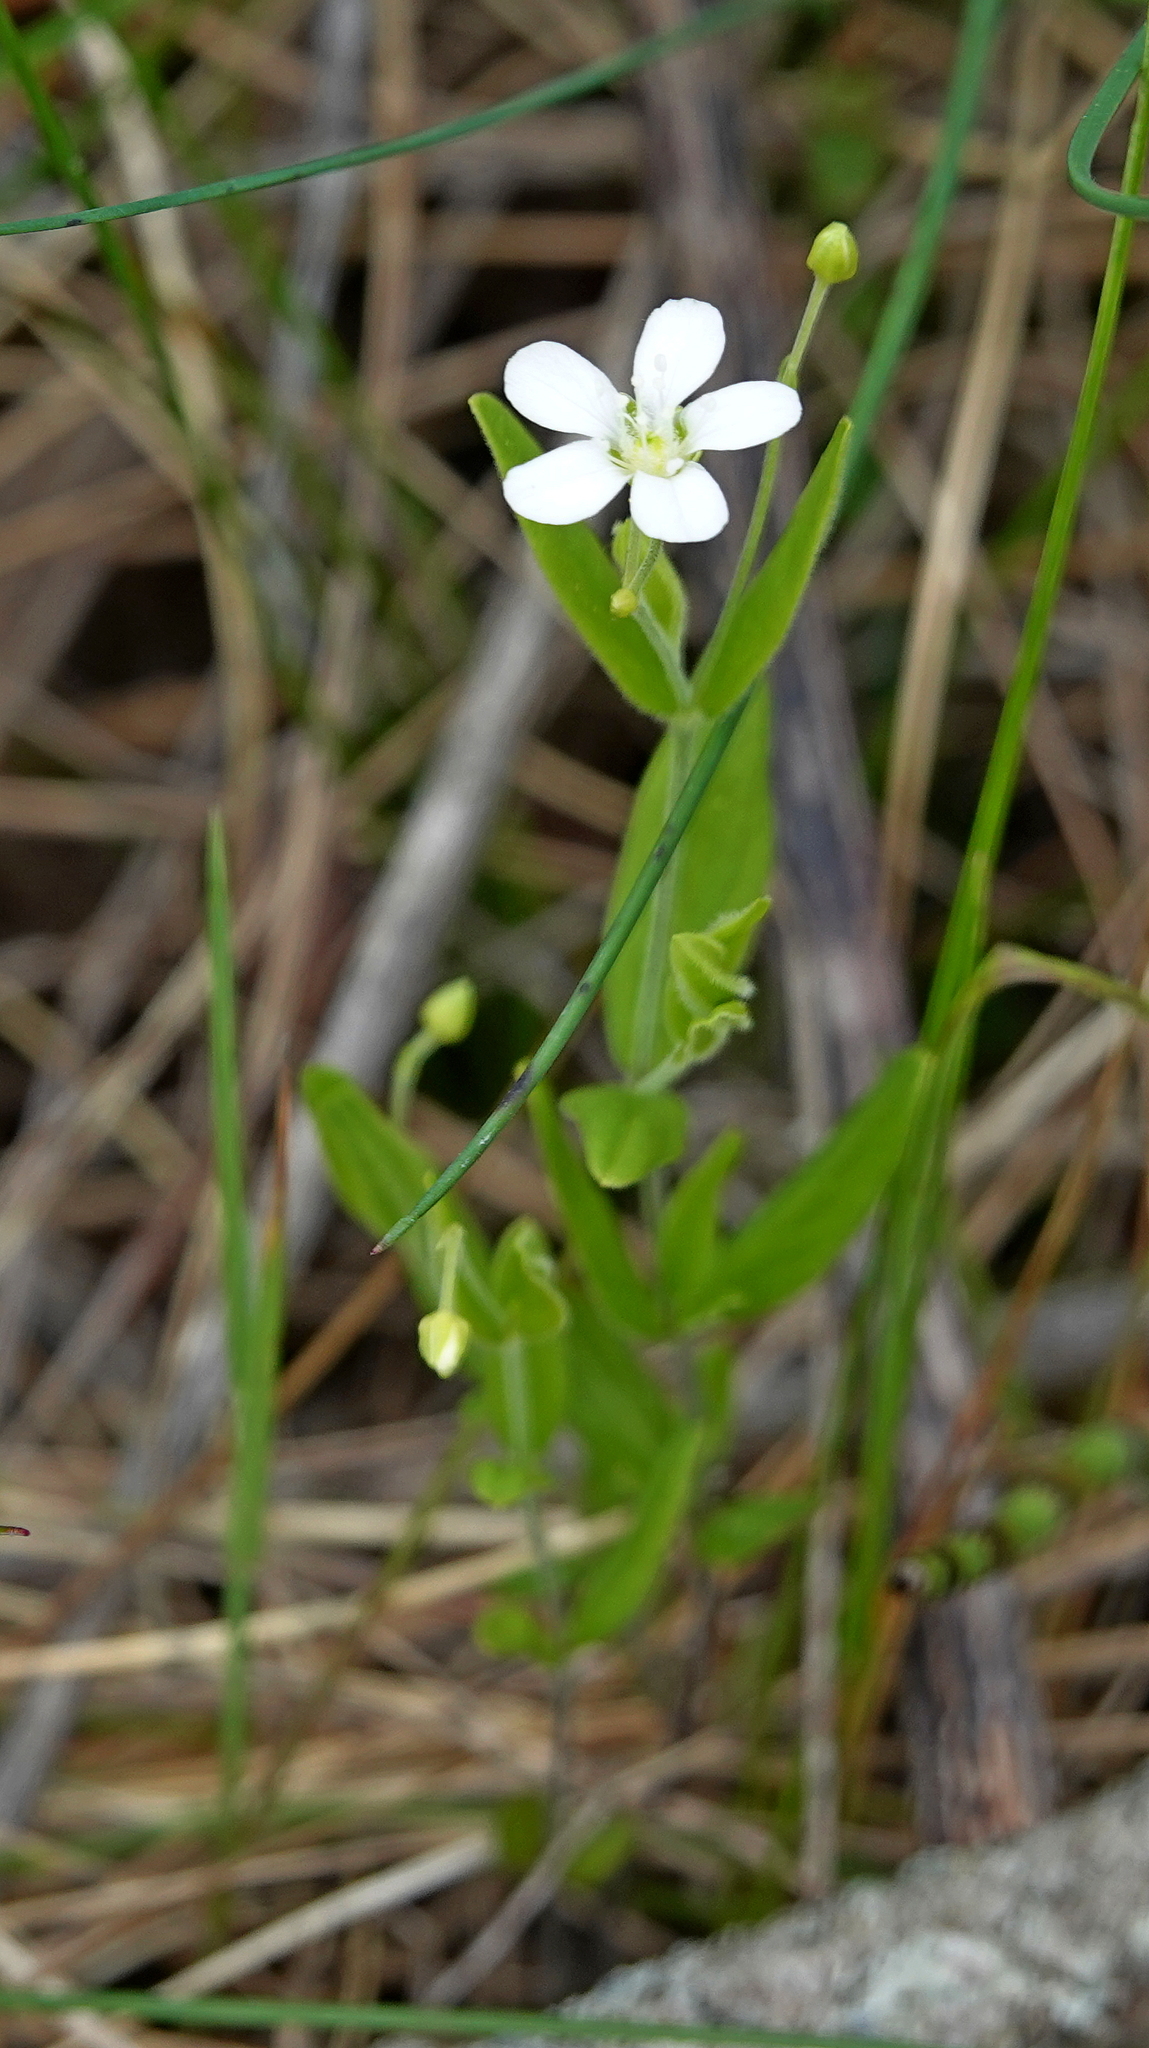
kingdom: Plantae
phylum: Tracheophyta
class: Magnoliopsida
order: Caryophyllales
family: Caryophyllaceae
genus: Moehringia
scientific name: Moehringia lateriflora
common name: Blunt-leaved sandwort
